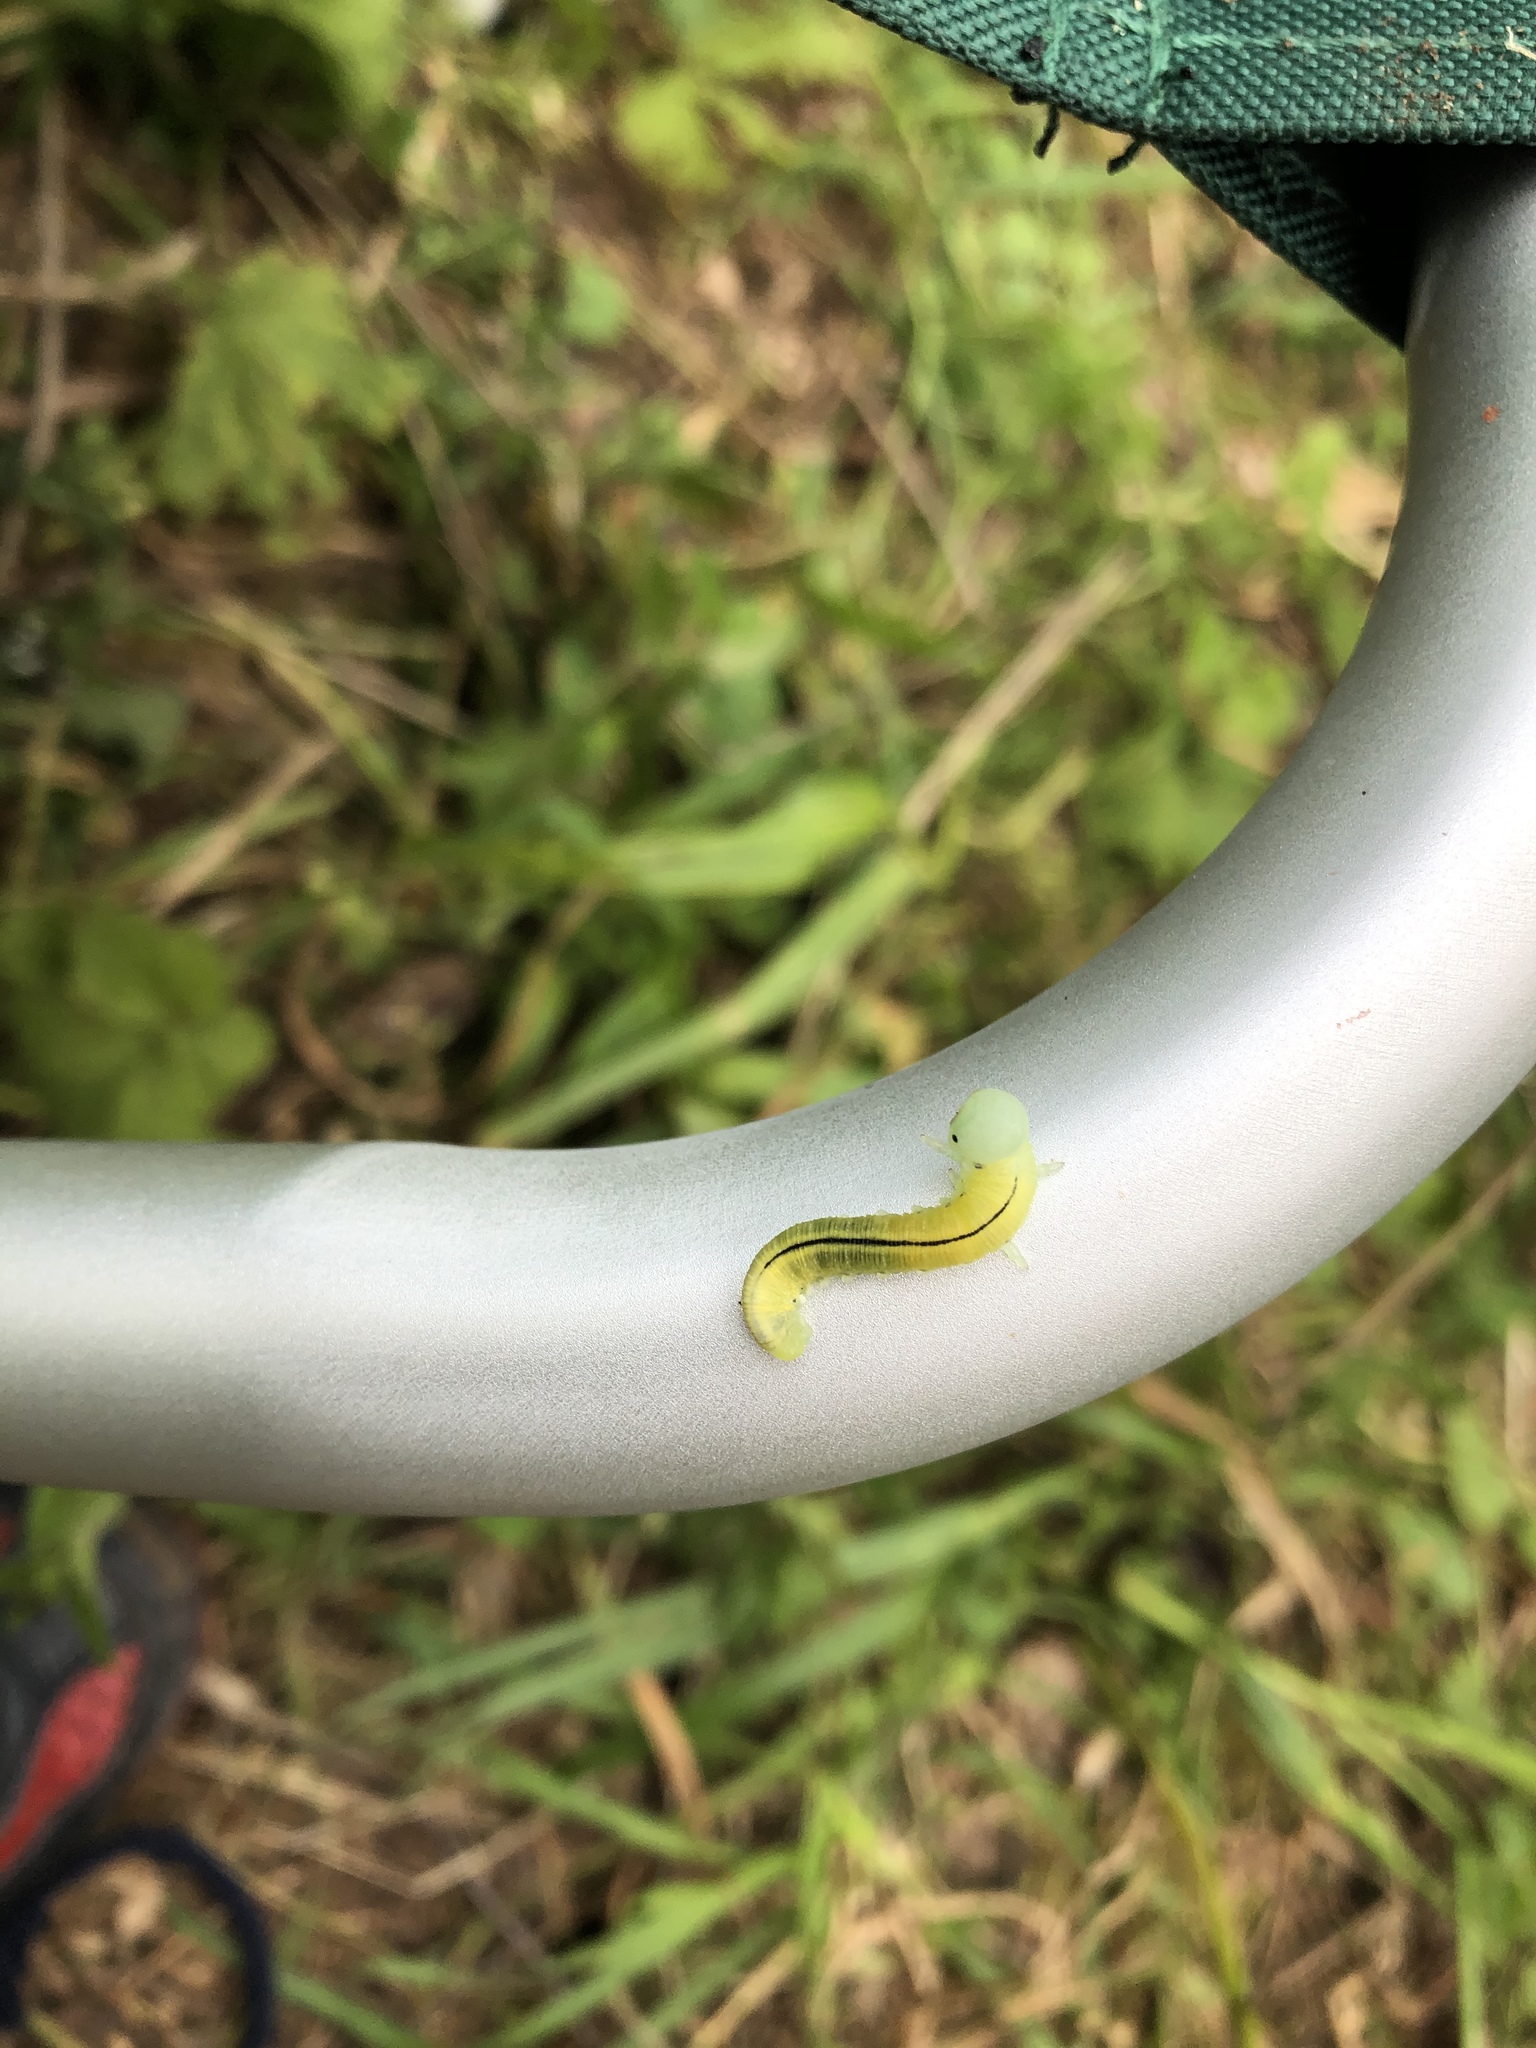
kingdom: Animalia
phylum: Arthropoda
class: Insecta
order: Hymenoptera
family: Cimbicidae
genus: Cimbex
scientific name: Cimbex femoratus
